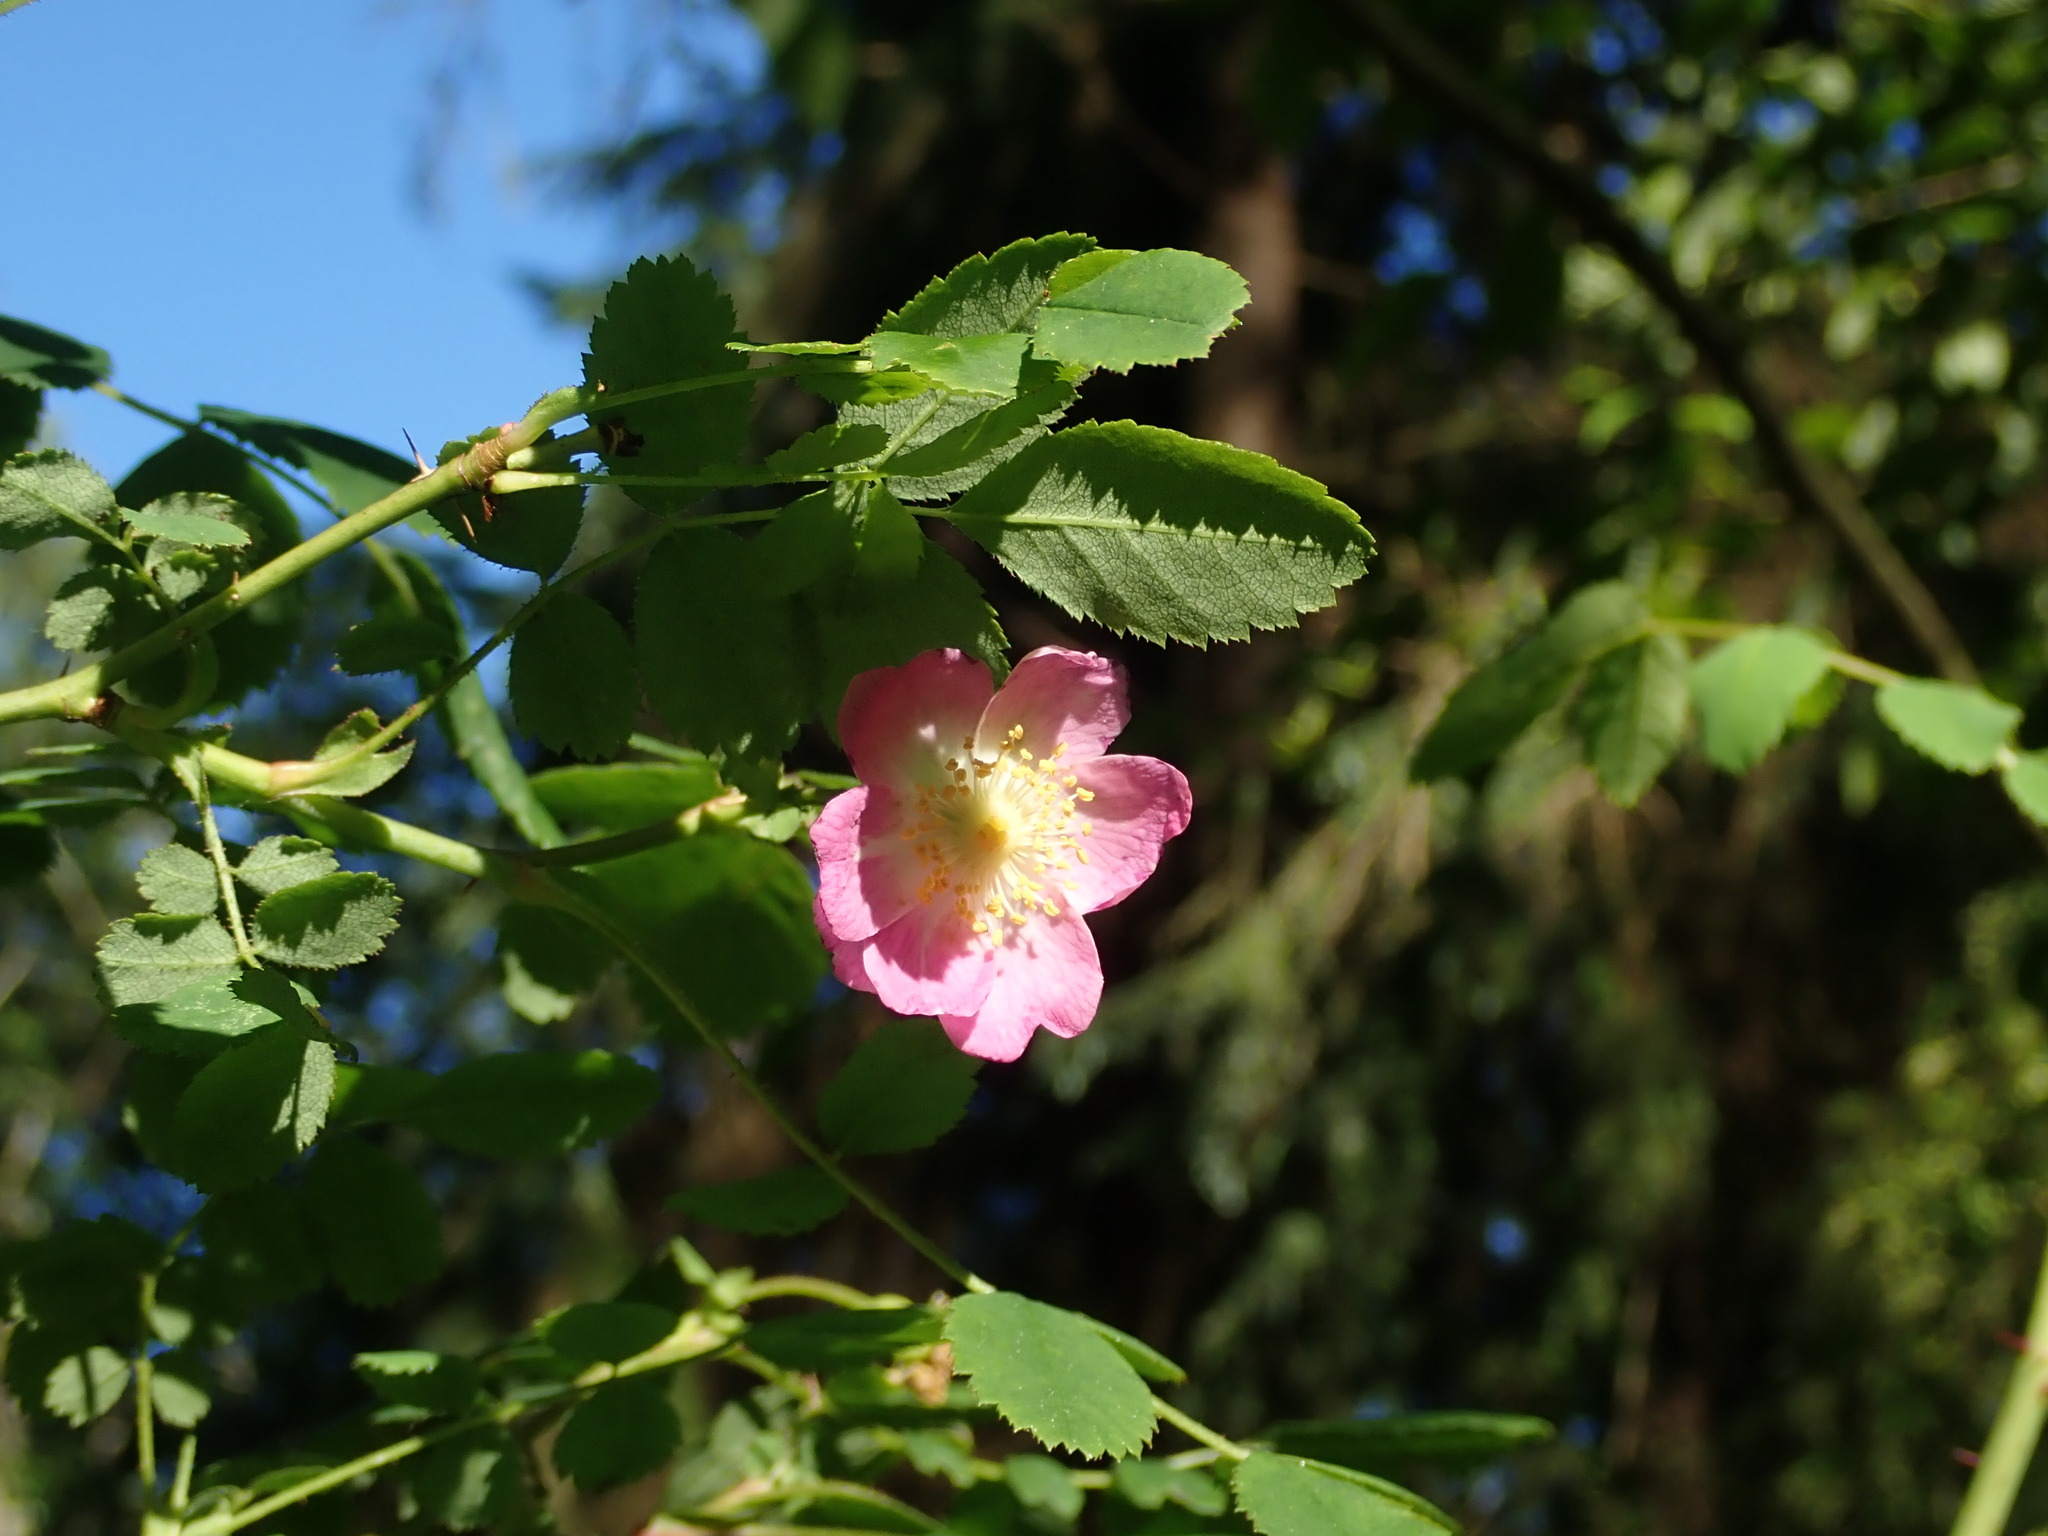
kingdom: Plantae
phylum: Tracheophyta
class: Magnoliopsida
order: Rosales
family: Rosaceae
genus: Rosa
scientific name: Rosa pisocarpa
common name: Cluster rose
